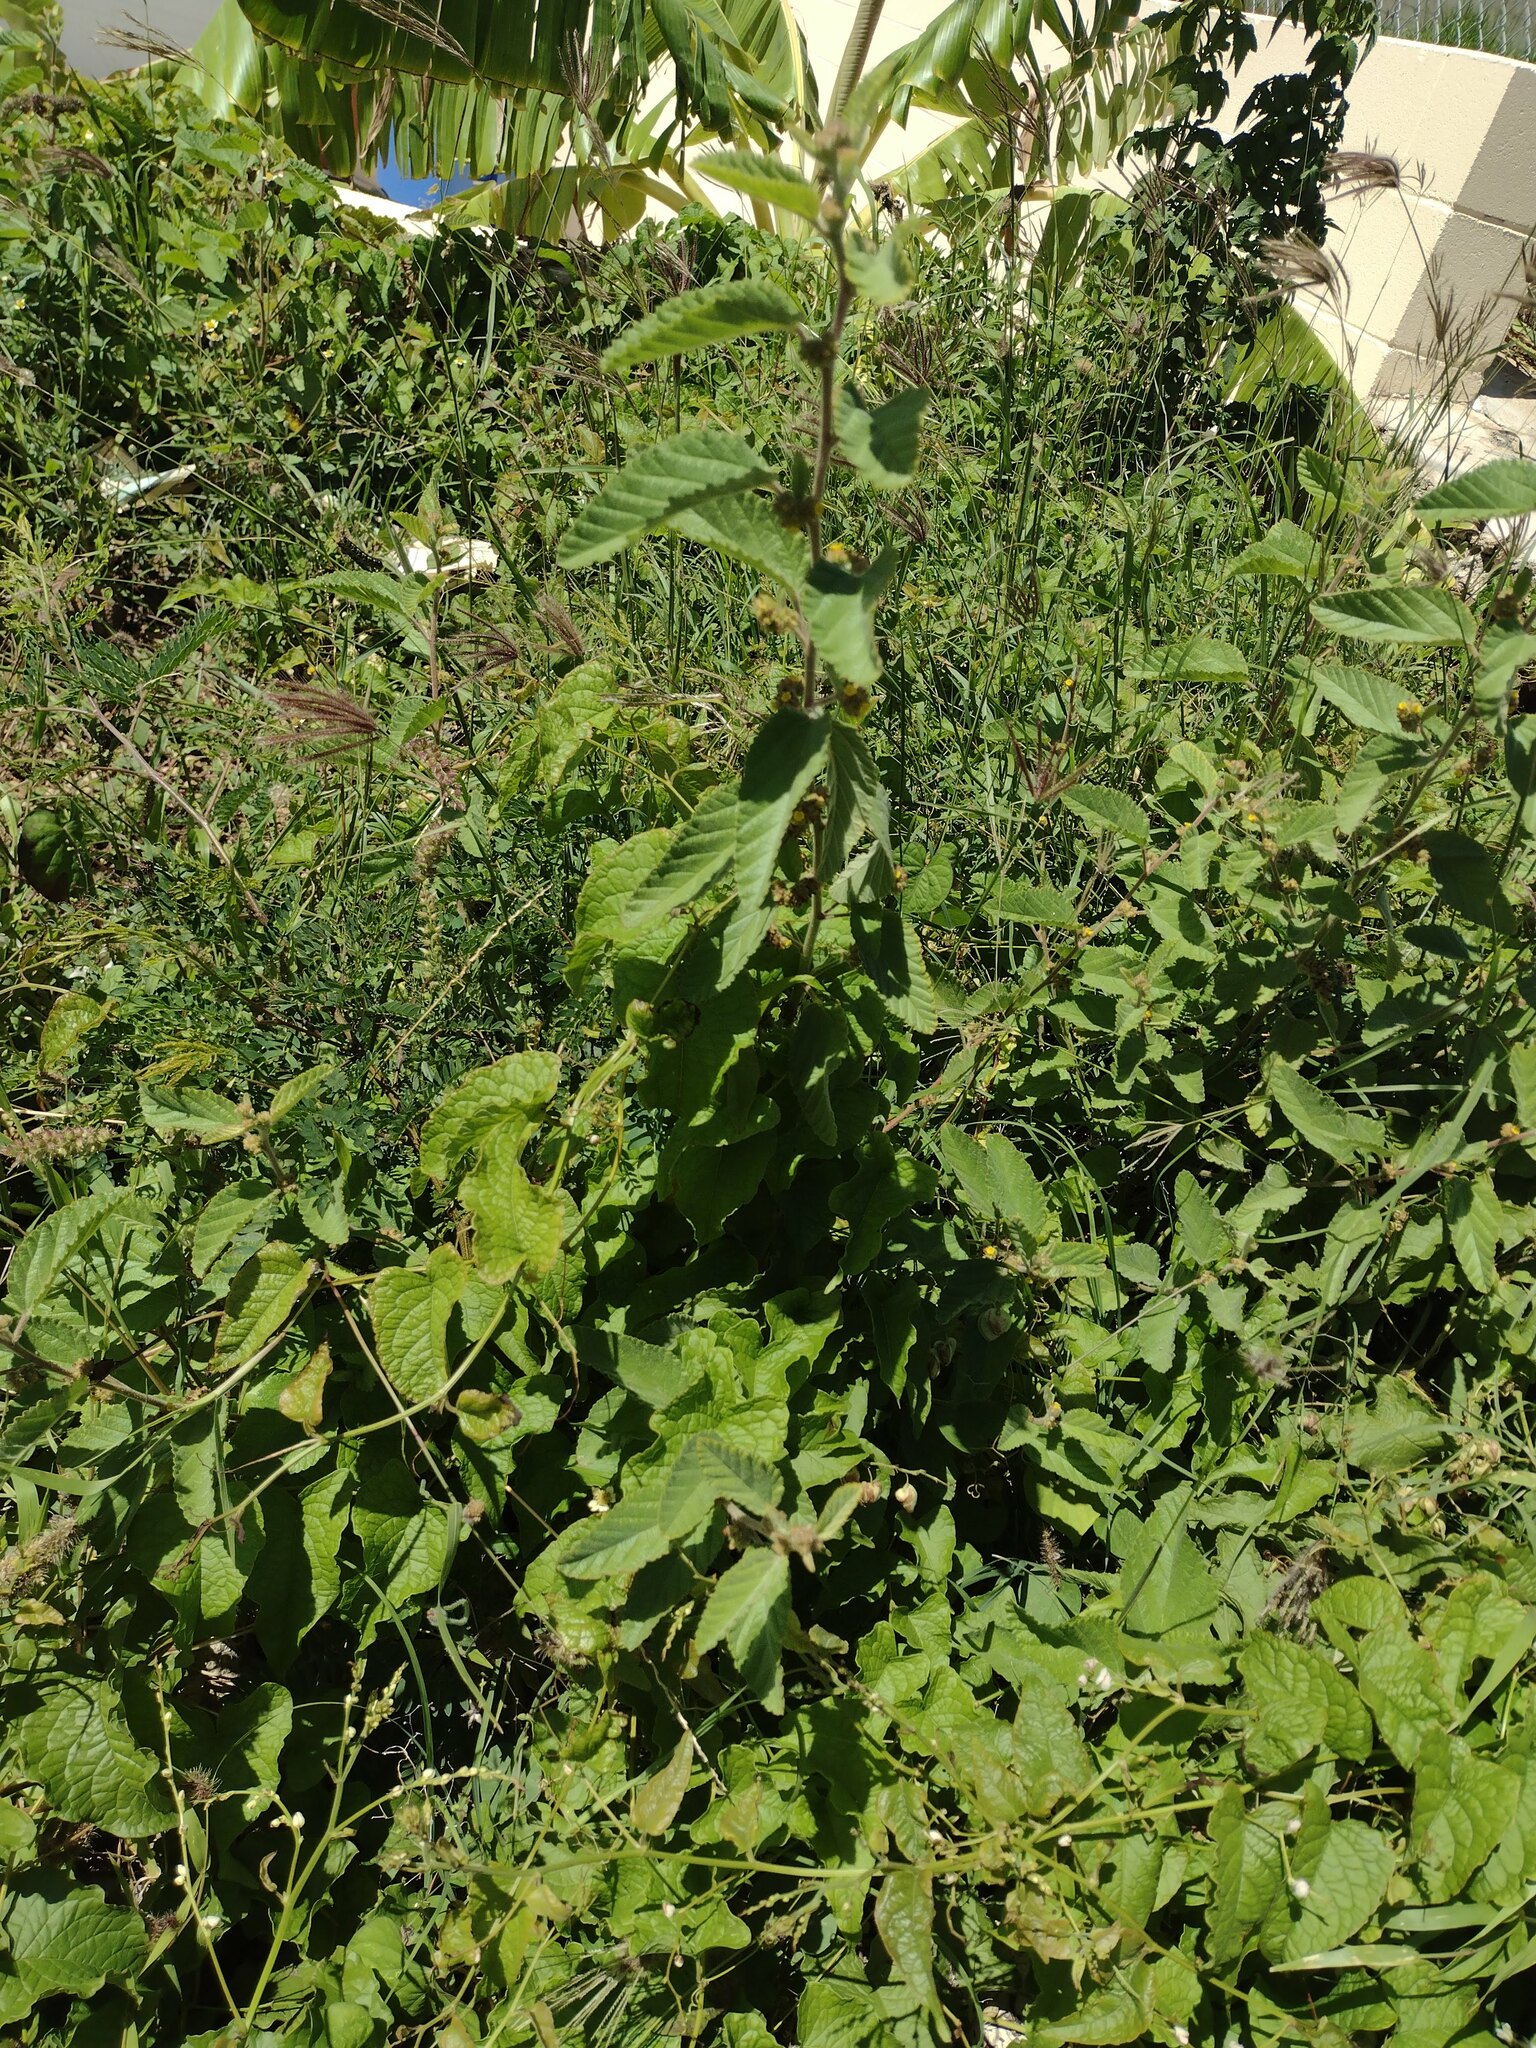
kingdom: Plantae
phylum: Tracheophyta
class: Magnoliopsida
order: Malvales
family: Malvaceae
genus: Waltheria
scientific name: Waltheria indica
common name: Leather-coat
